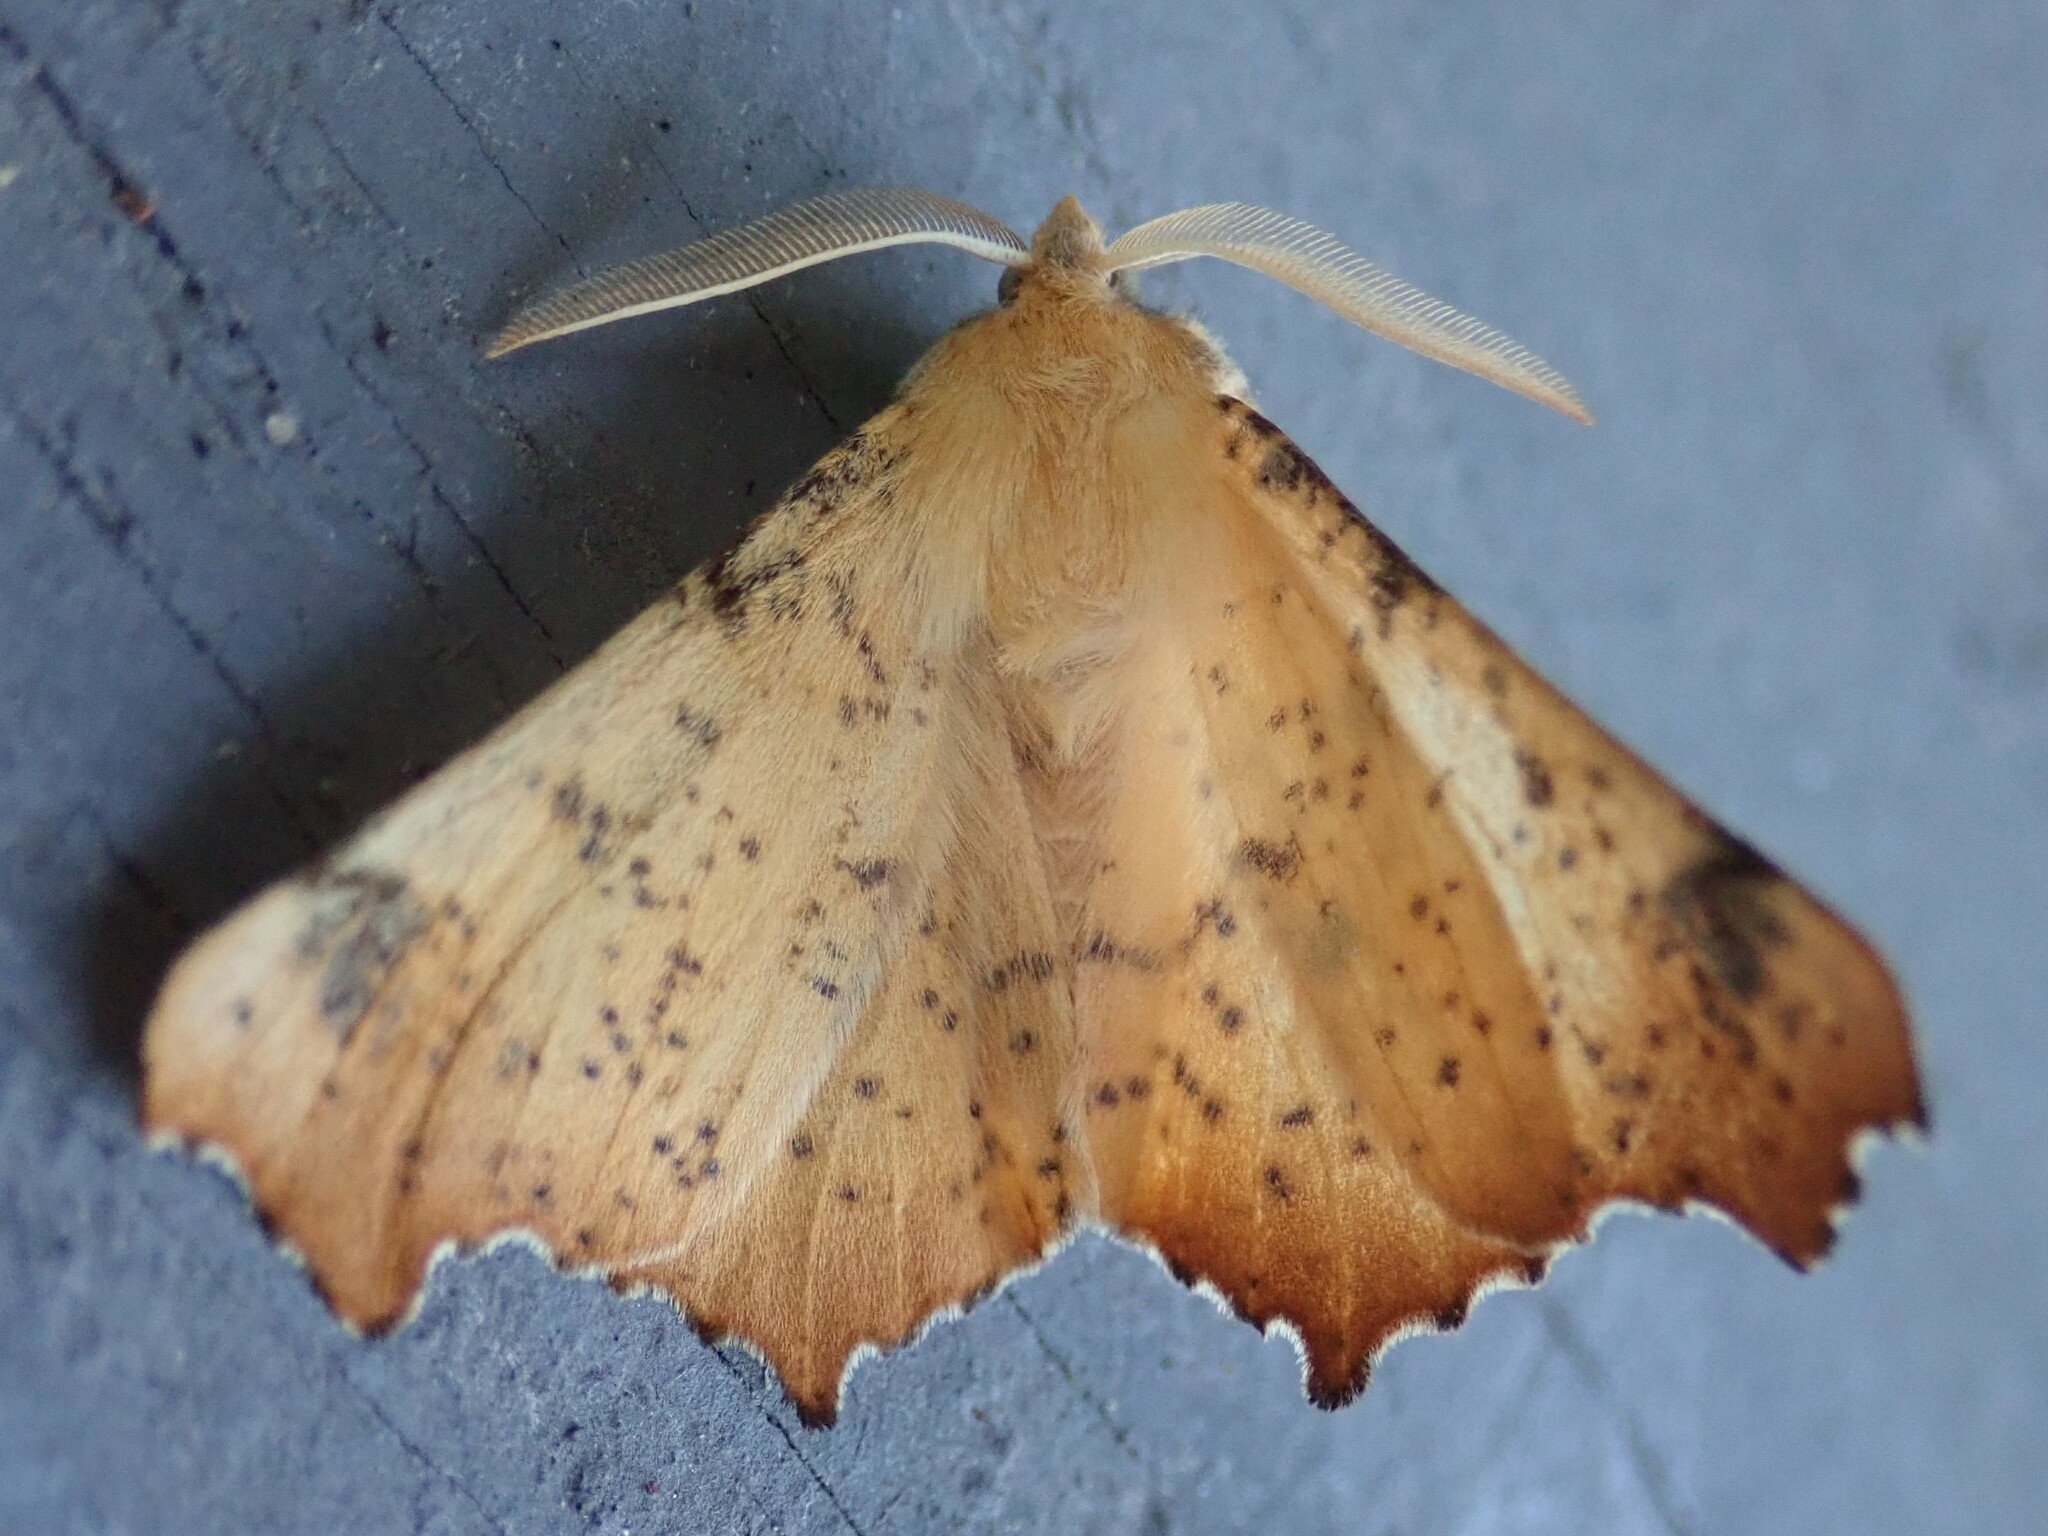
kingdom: Animalia
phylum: Arthropoda
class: Insecta
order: Lepidoptera
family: Geometridae
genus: Ennomos
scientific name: Ennomos magnaria
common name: Maple spanworm
